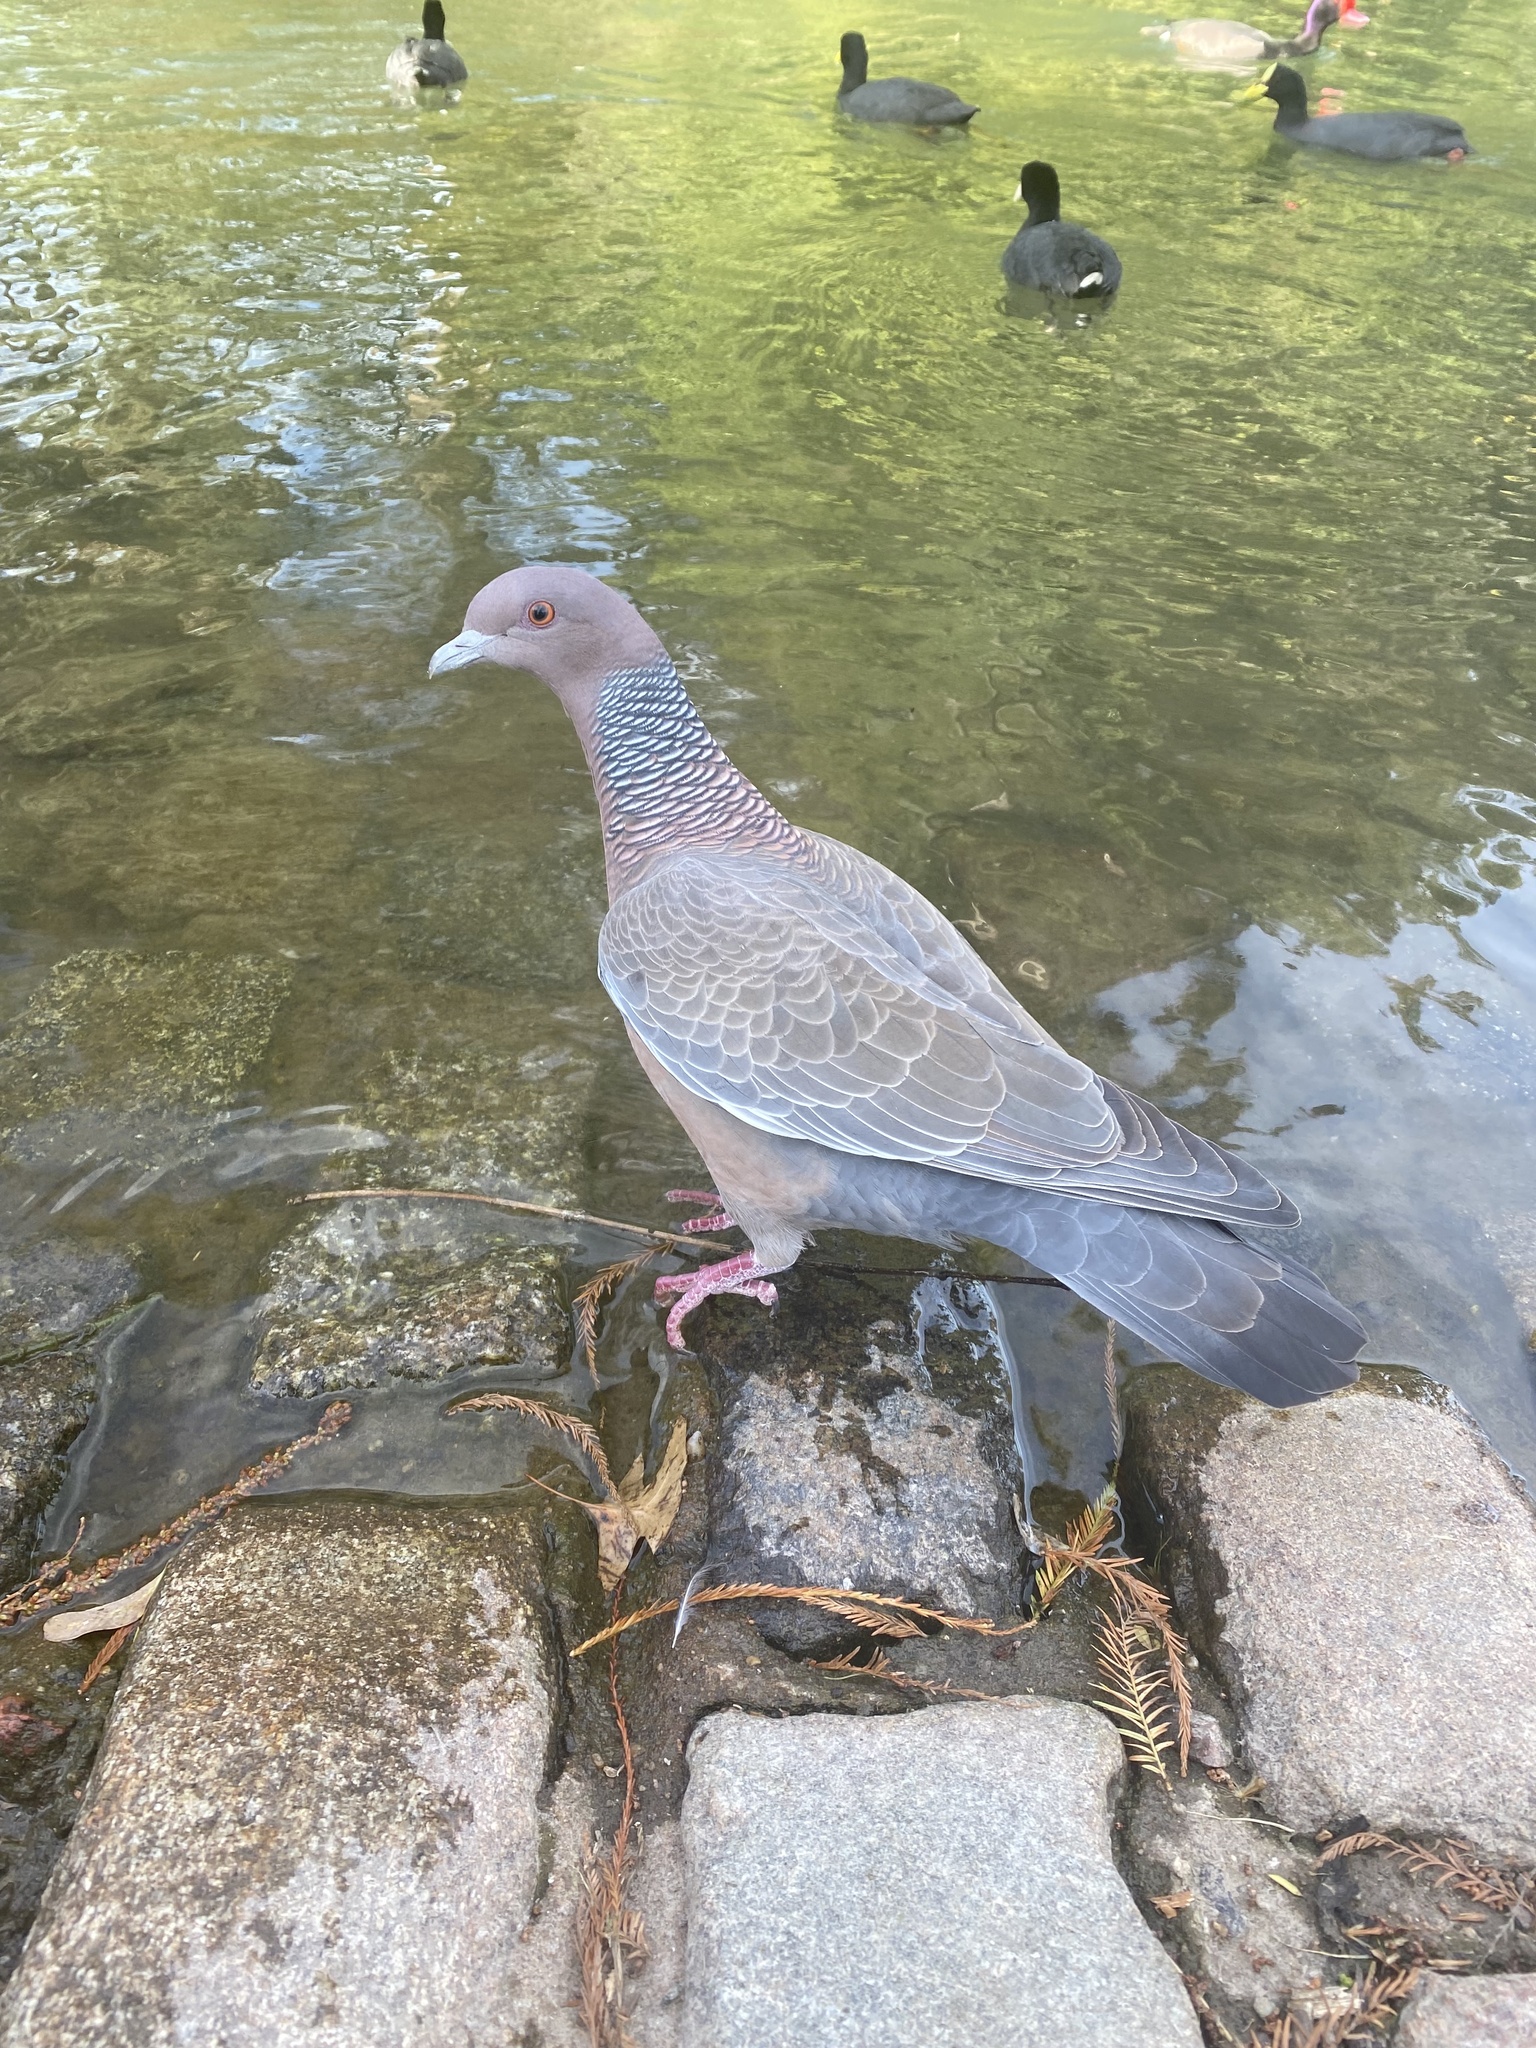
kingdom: Animalia
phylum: Chordata
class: Aves
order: Columbiformes
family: Columbidae
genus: Patagioenas
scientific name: Patagioenas picazuro
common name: Picazuro pigeon
